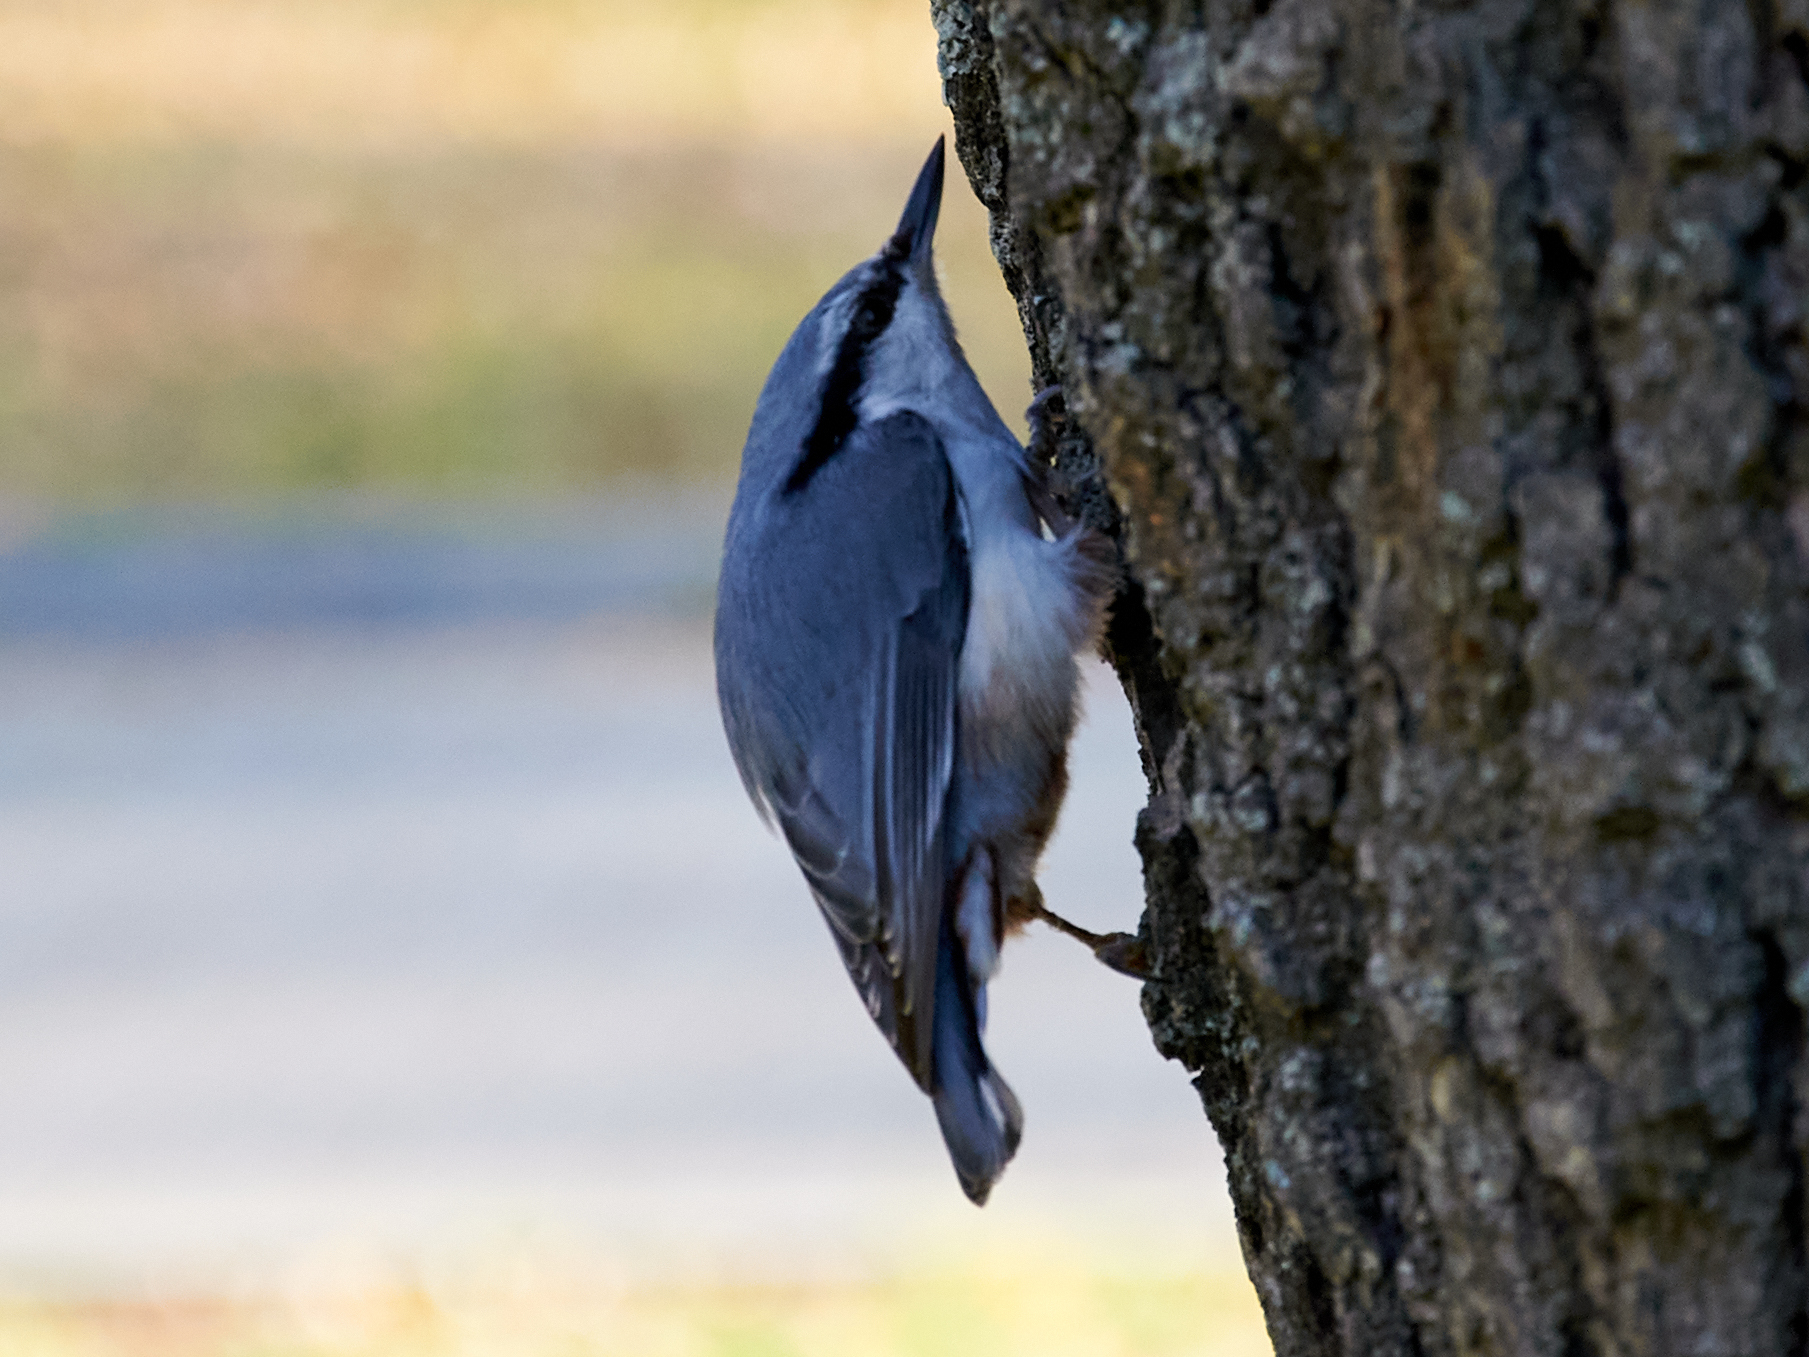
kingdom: Animalia
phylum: Chordata
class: Aves
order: Passeriformes
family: Sittidae
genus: Sitta
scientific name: Sitta europaea
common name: Eurasian nuthatch
